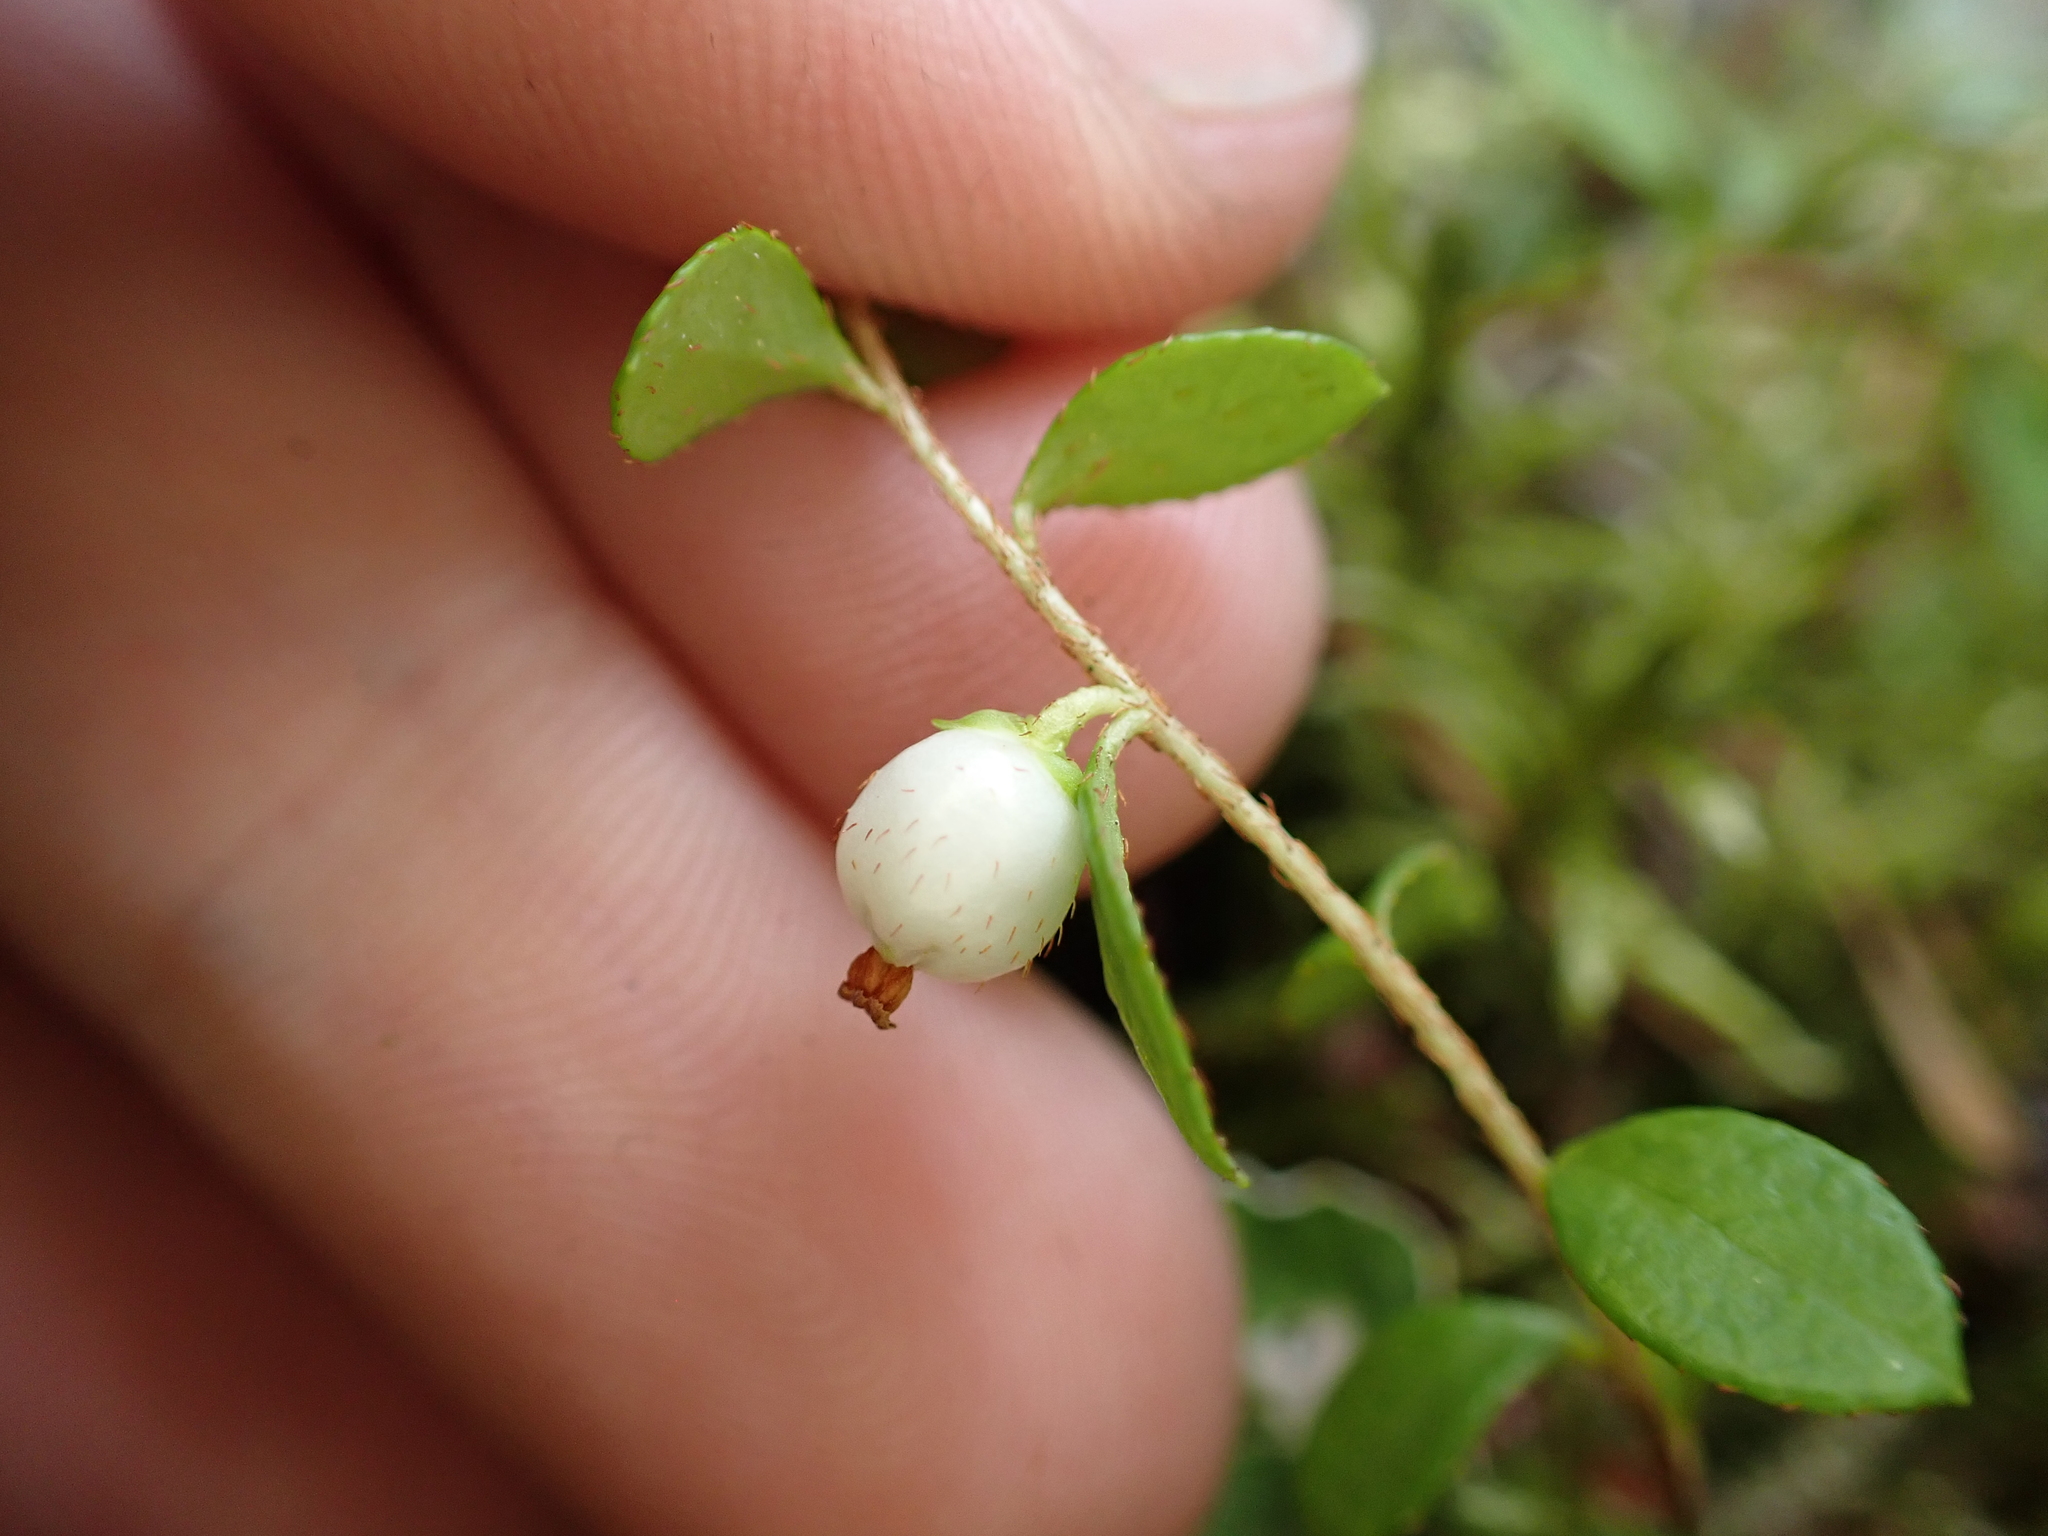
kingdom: Plantae
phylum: Tracheophyta
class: Magnoliopsida
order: Ericales
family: Ericaceae
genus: Gaultheria
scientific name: Gaultheria hispidula
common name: Cancer wintergreen
